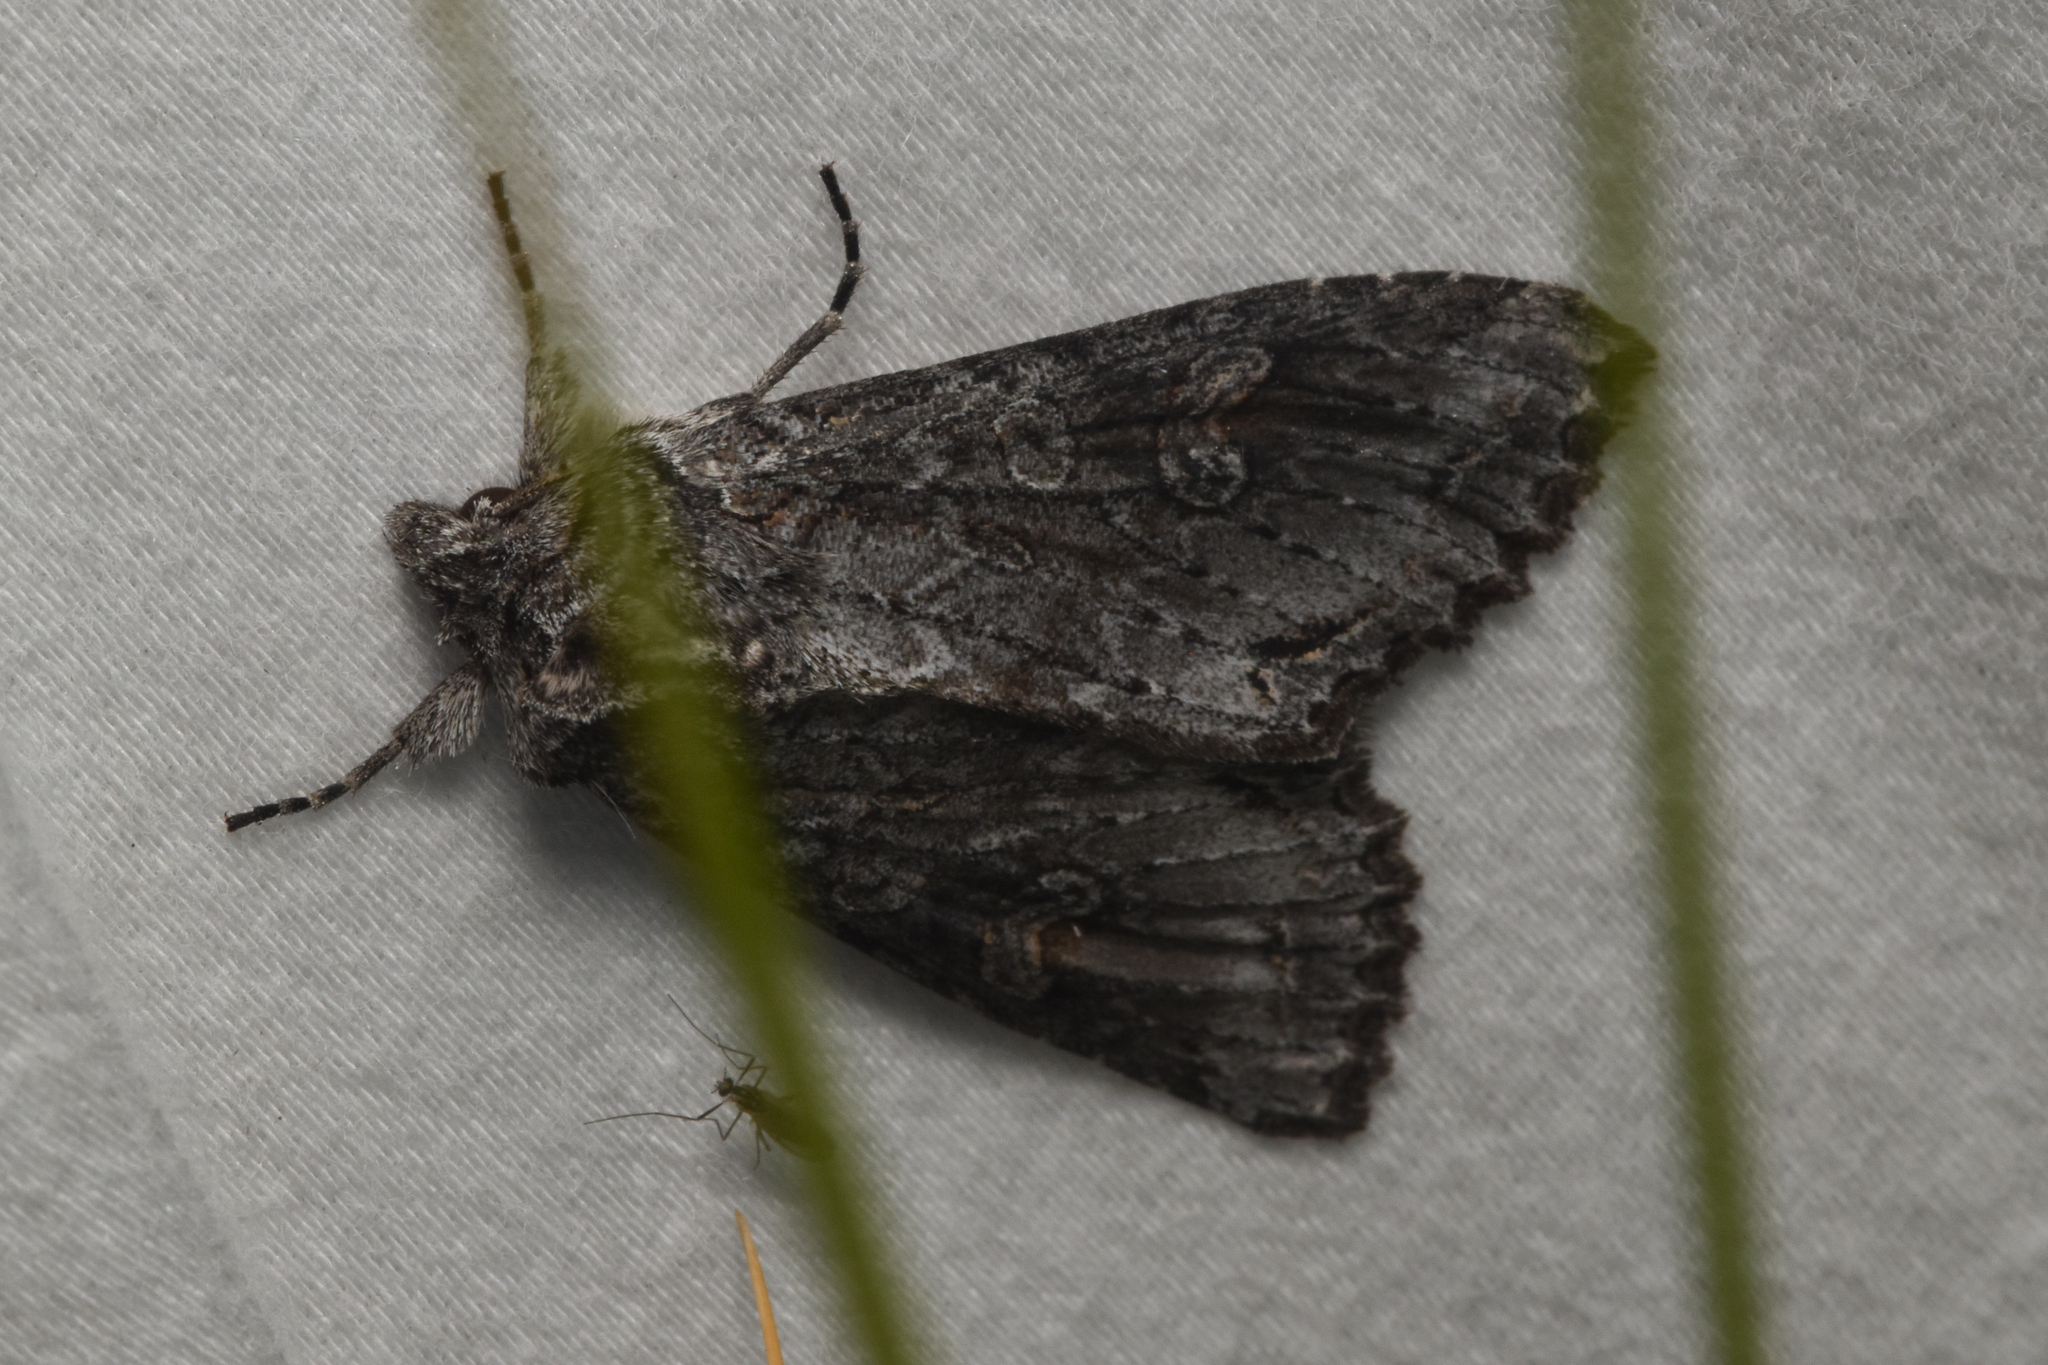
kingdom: Animalia
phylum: Arthropoda
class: Insecta
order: Lepidoptera
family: Noctuidae
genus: Polia
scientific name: Polia purpurissata
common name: Purple arches moth
